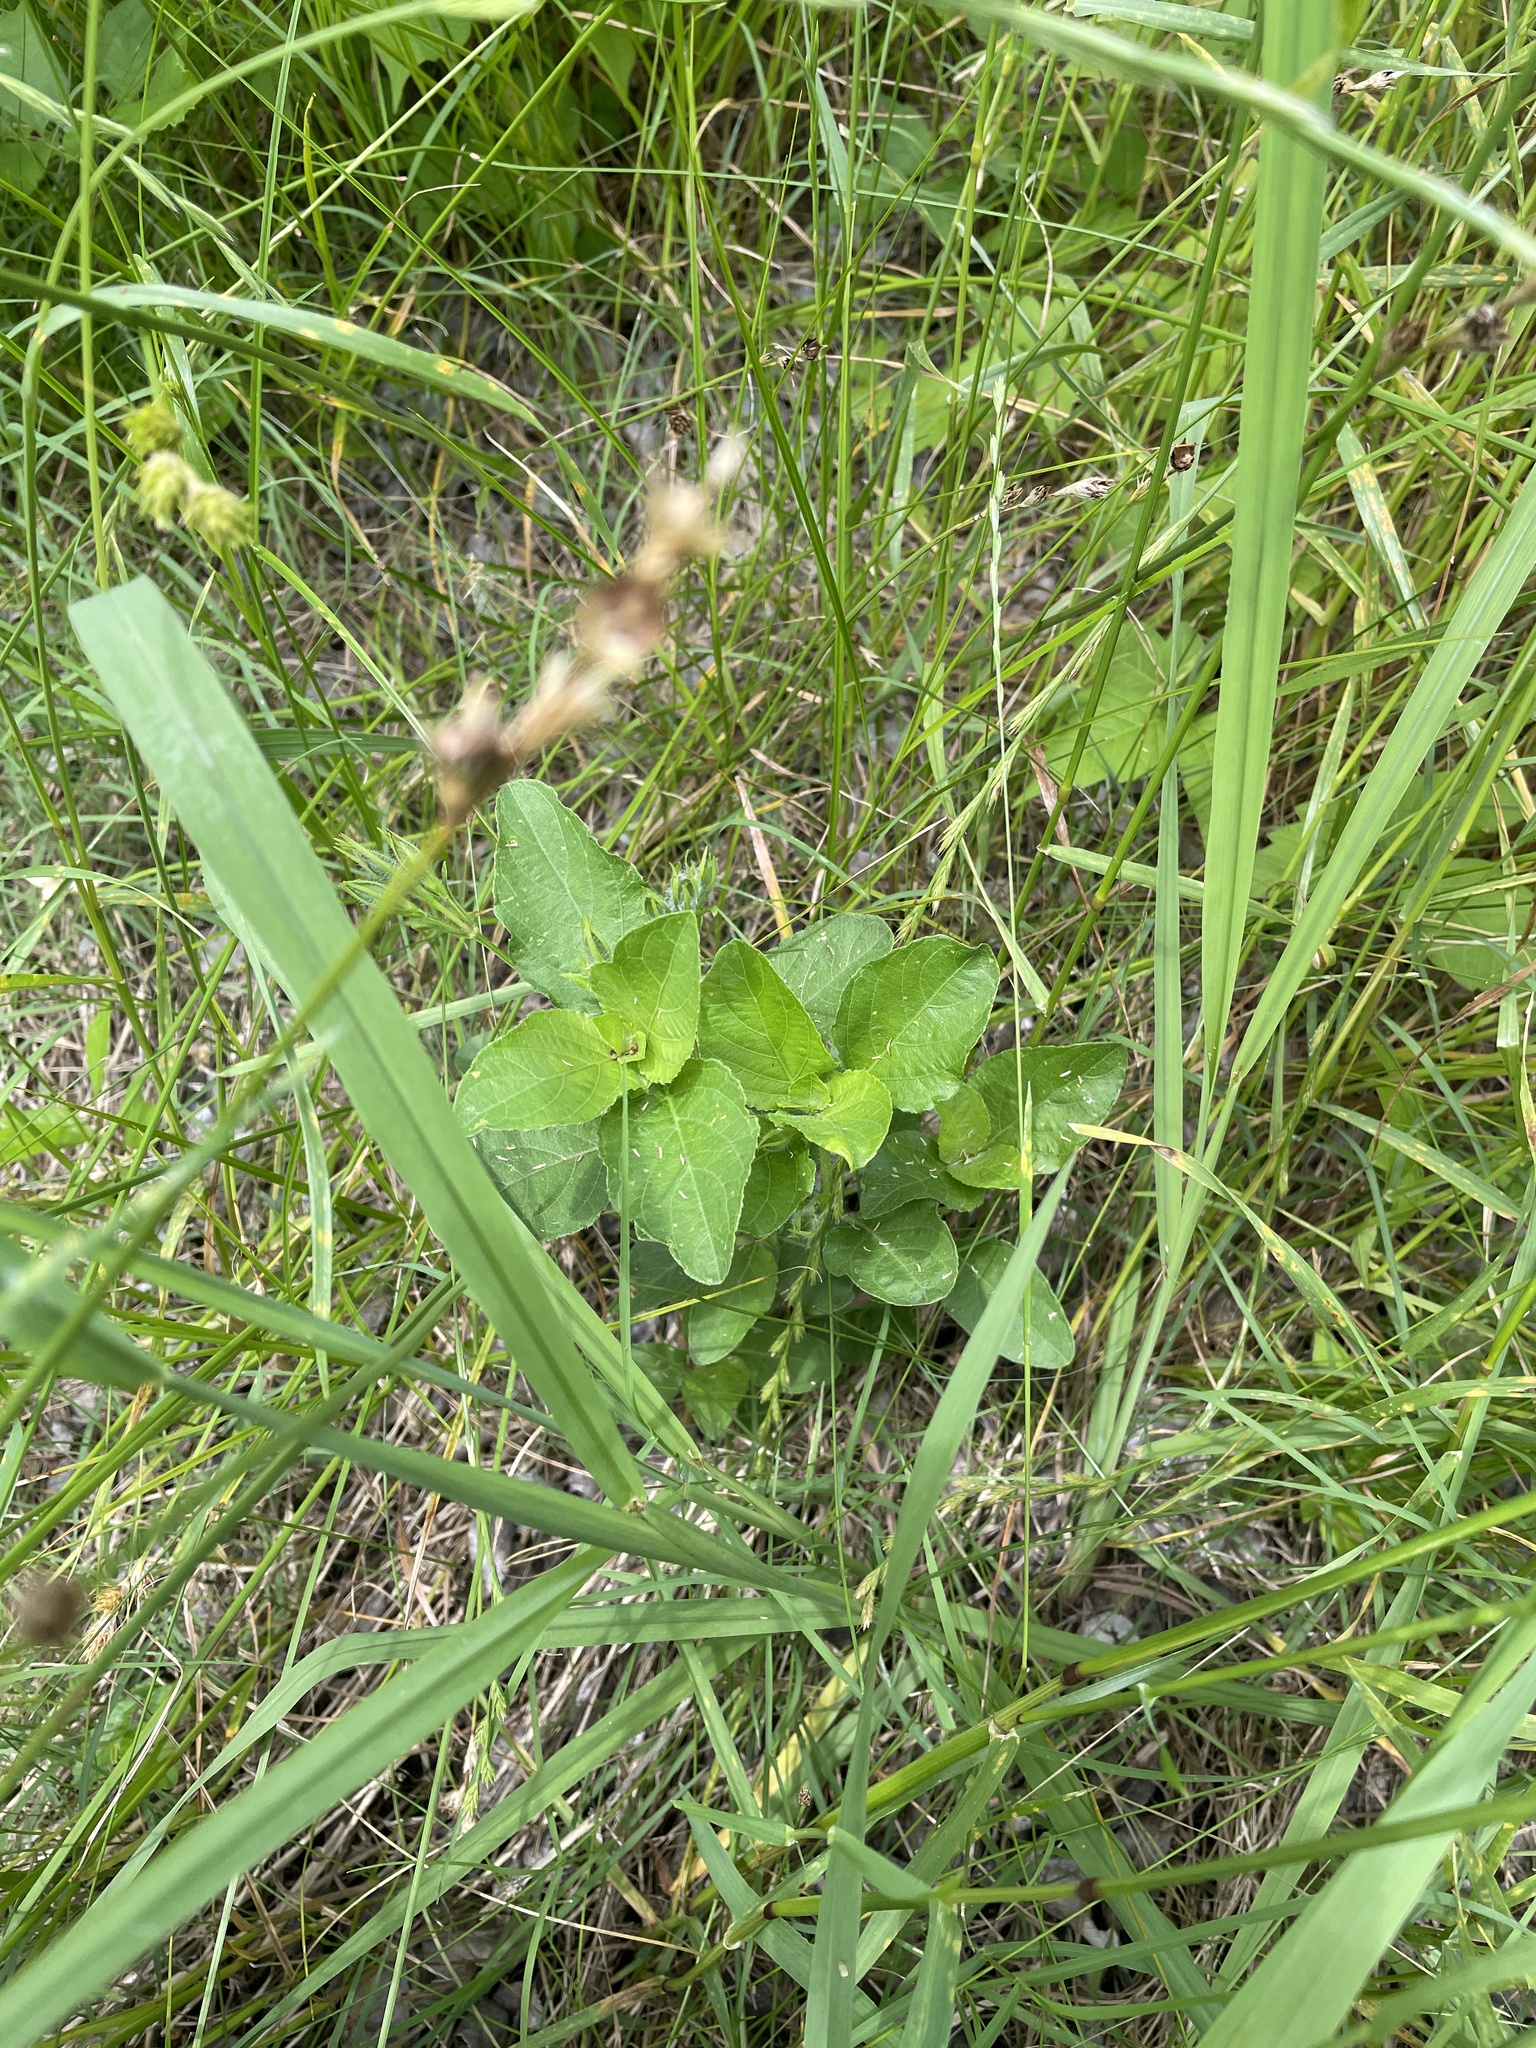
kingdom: Plantae
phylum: Tracheophyta
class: Magnoliopsida
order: Lamiales
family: Acanthaceae
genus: Ruellia
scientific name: Ruellia ciliatiflora
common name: Hairyflower wild petunia
